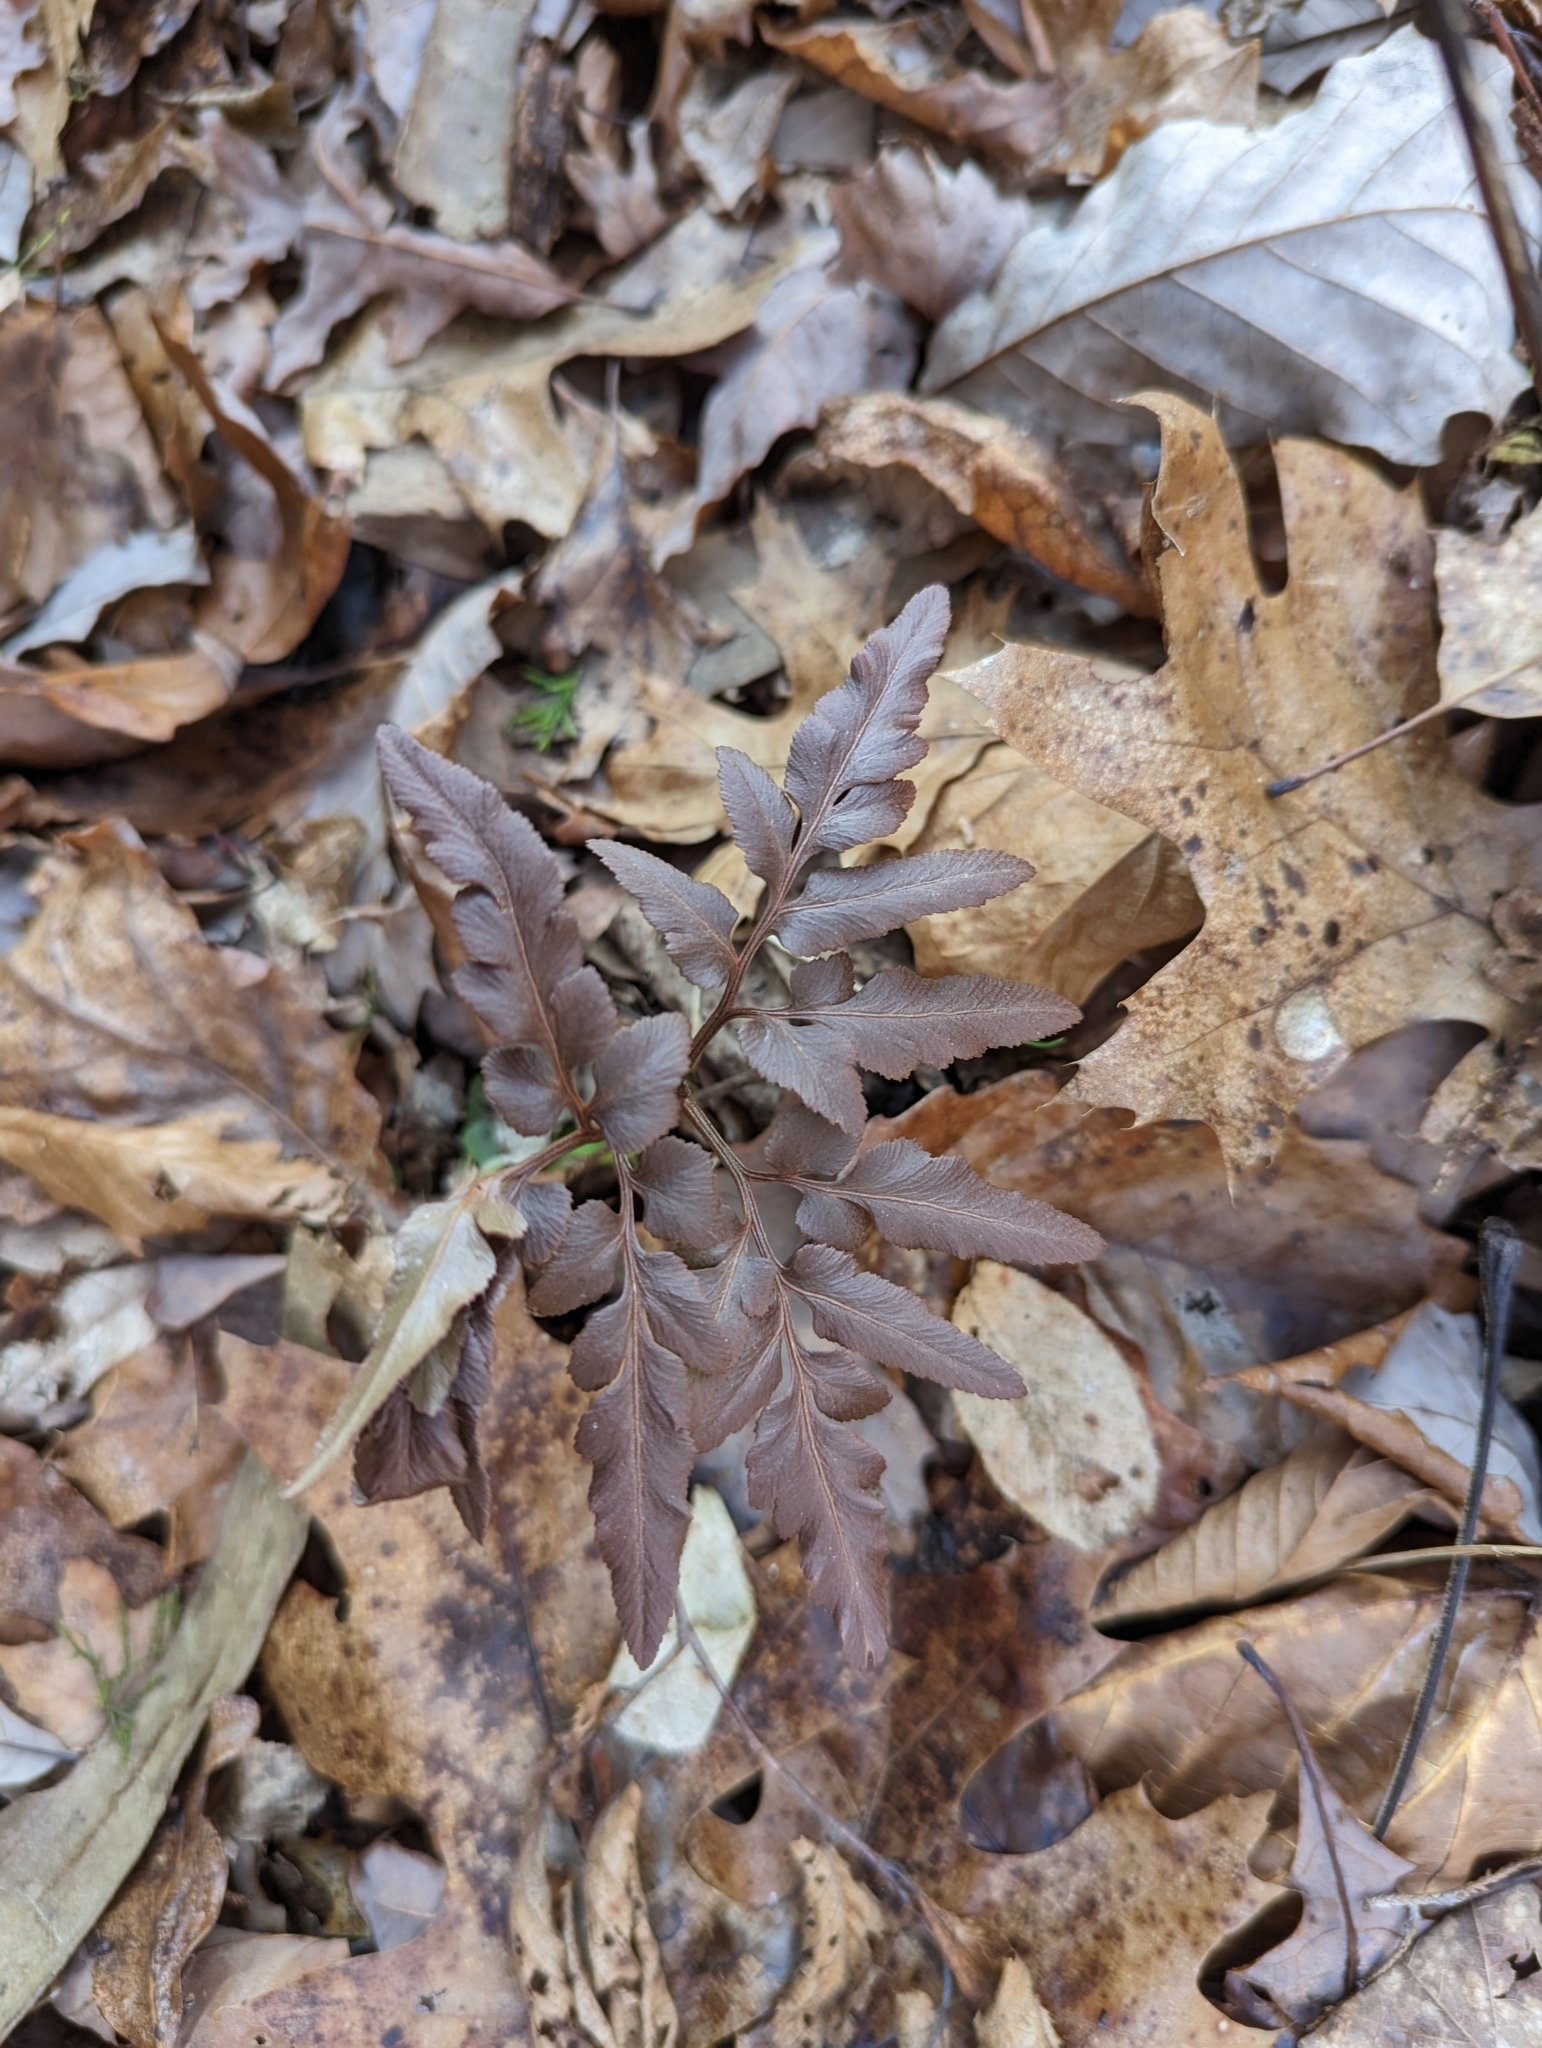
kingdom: Plantae
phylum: Tracheophyta
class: Polypodiopsida
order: Ophioglossales
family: Ophioglossaceae
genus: Sceptridium
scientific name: Sceptridium dissectum
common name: Cut-leaved grapefern
